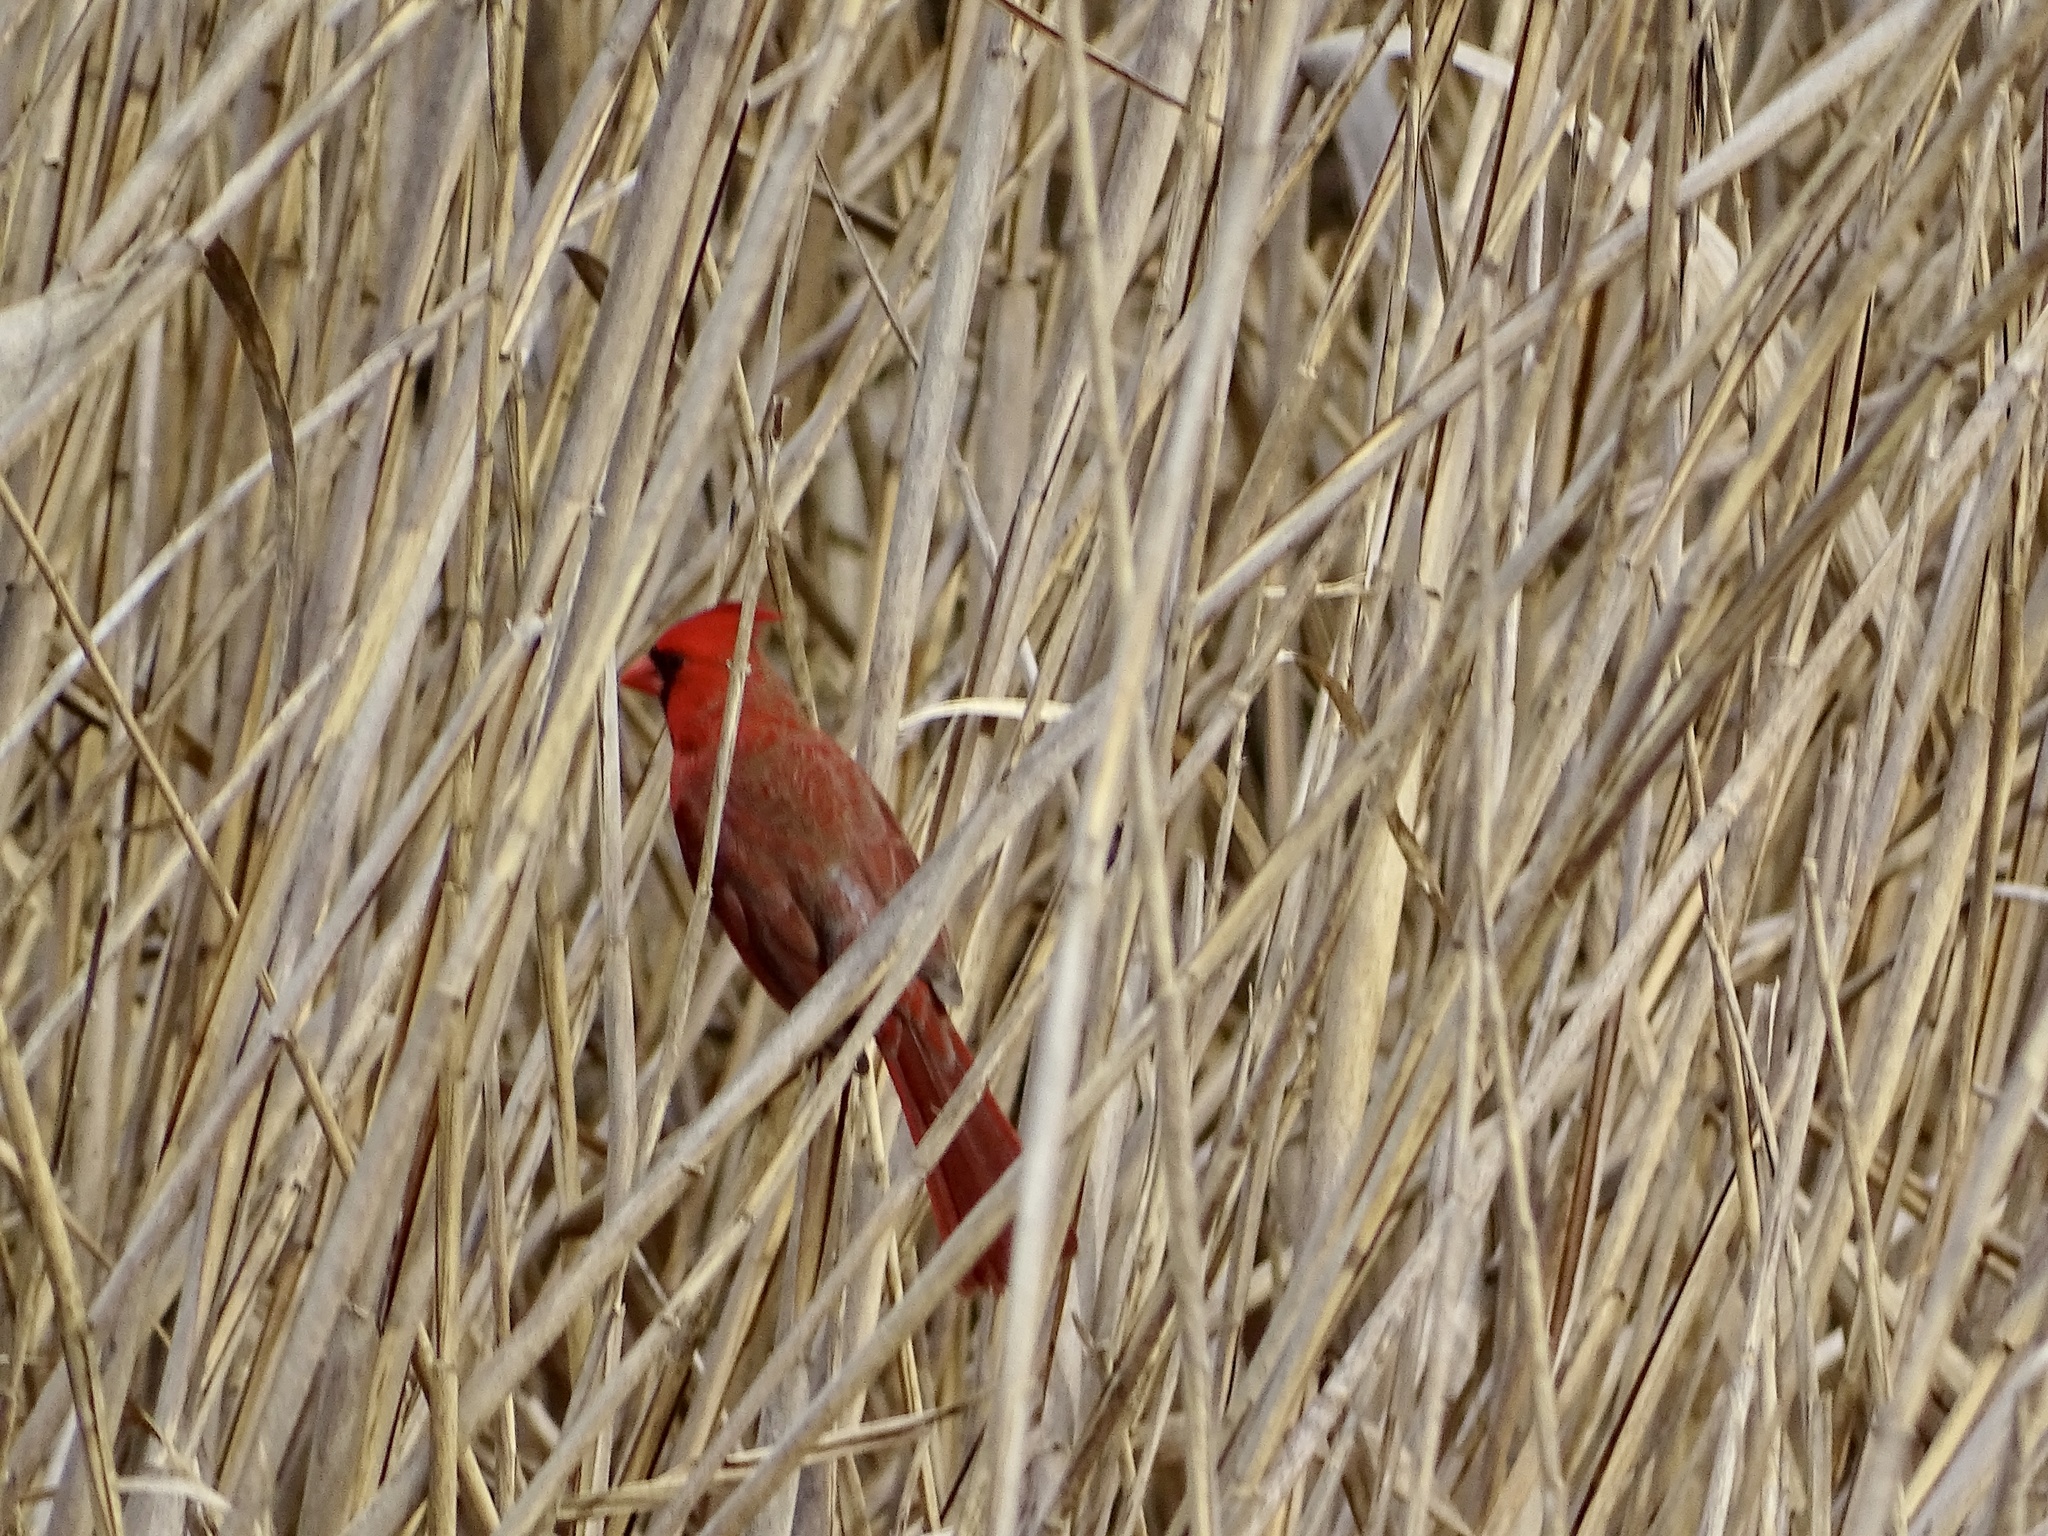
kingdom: Animalia
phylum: Chordata
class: Aves
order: Passeriformes
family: Cardinalidae
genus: Cardinalis
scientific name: Cardinalis cardinalis
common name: Northern cardinal
